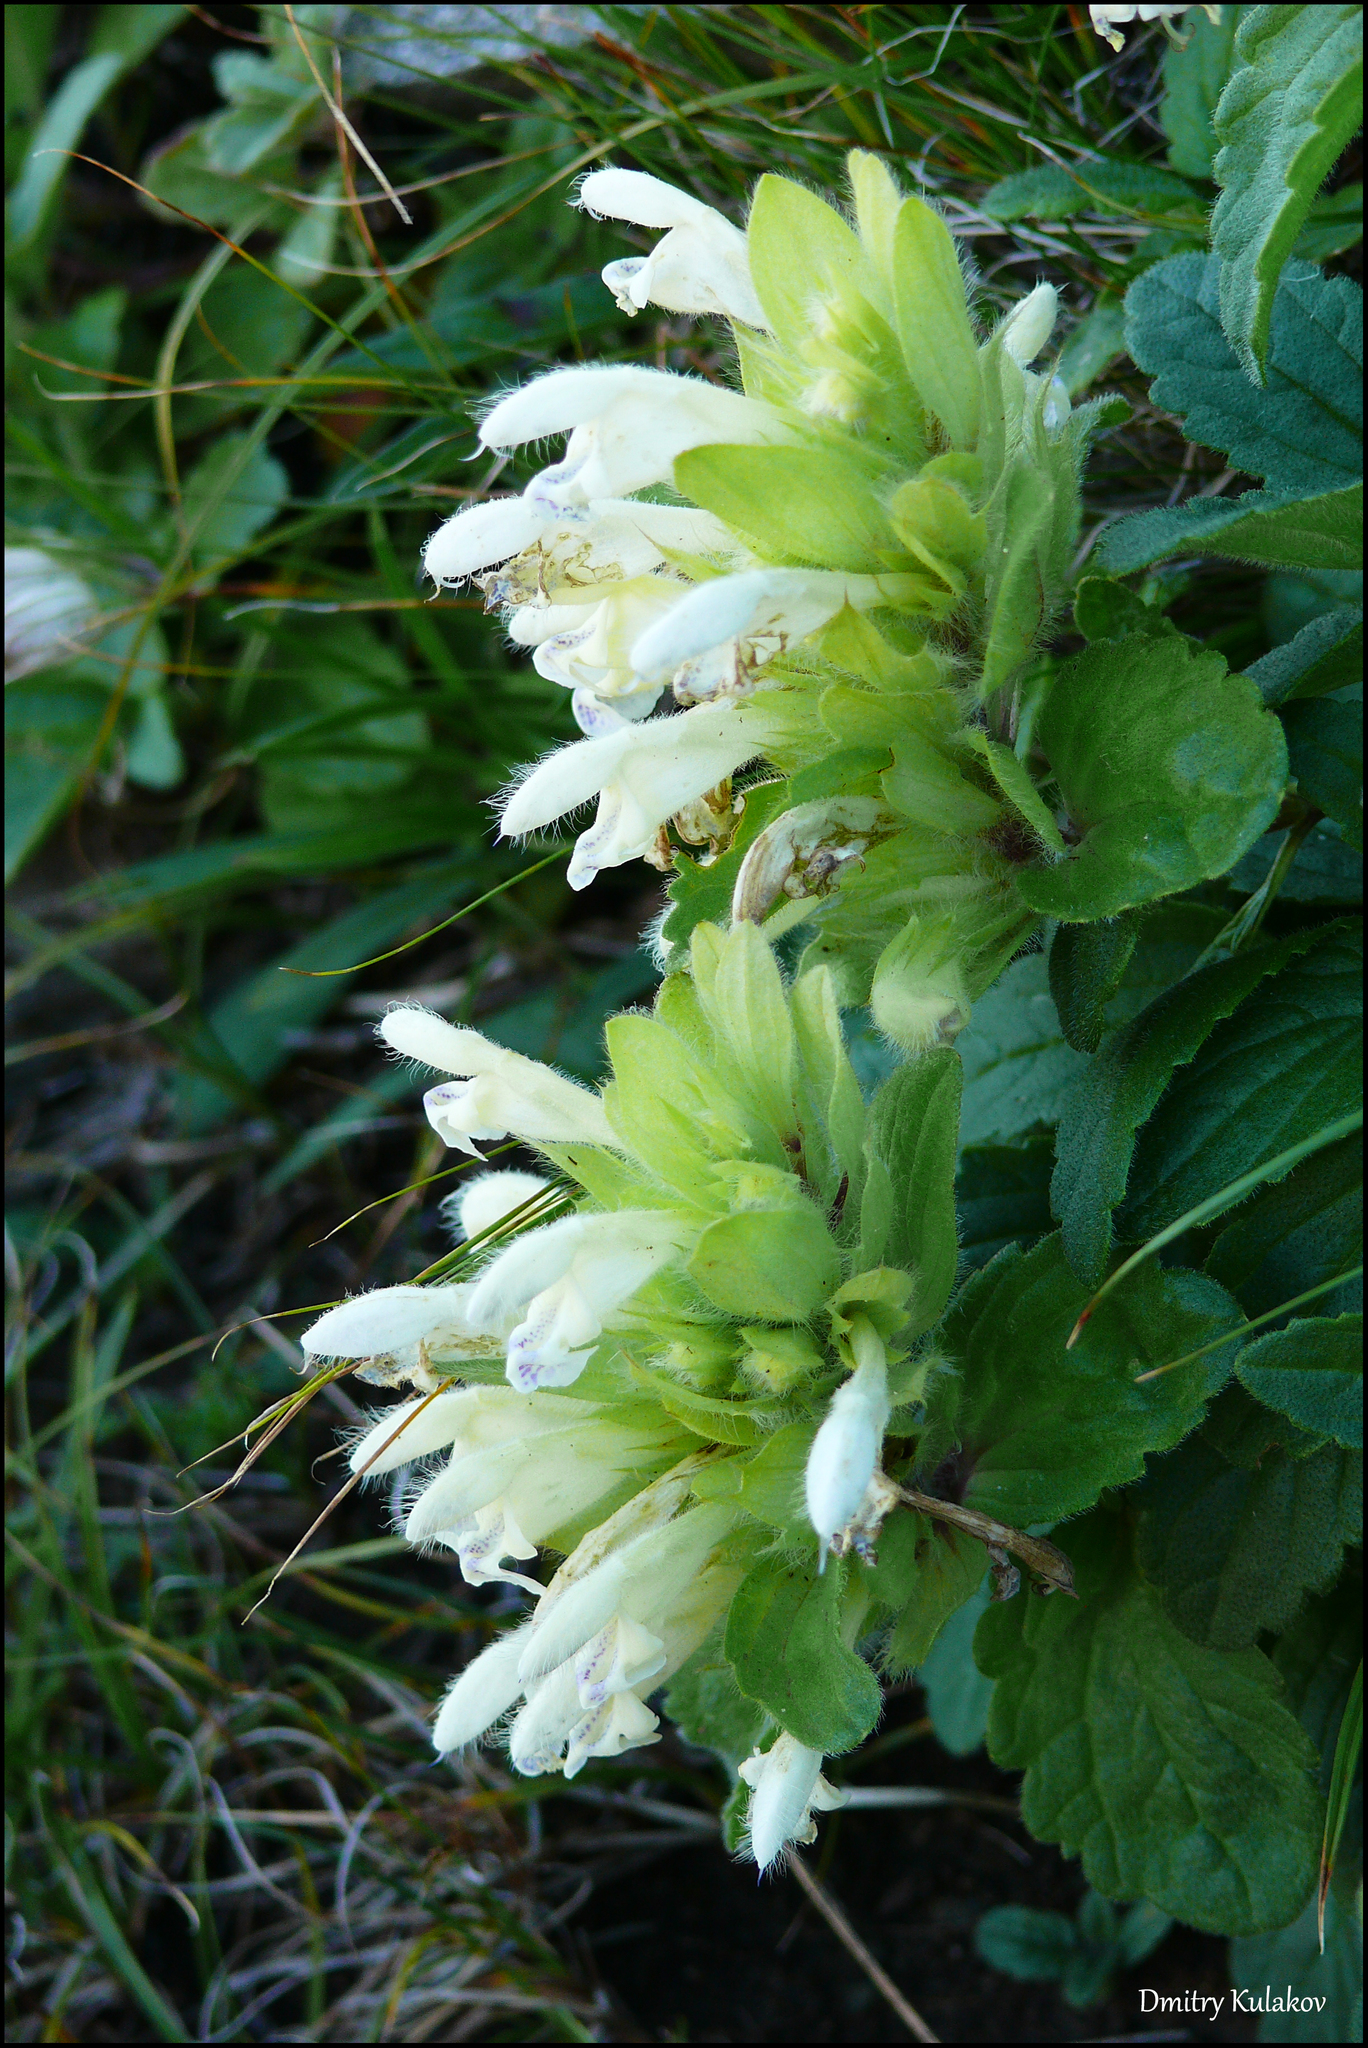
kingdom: Plantae
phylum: Tracheophyta
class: Magnoliopsida
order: Lamiales
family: Lamiaceae
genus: Dracocephalum
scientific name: Dracocephalum fragile
